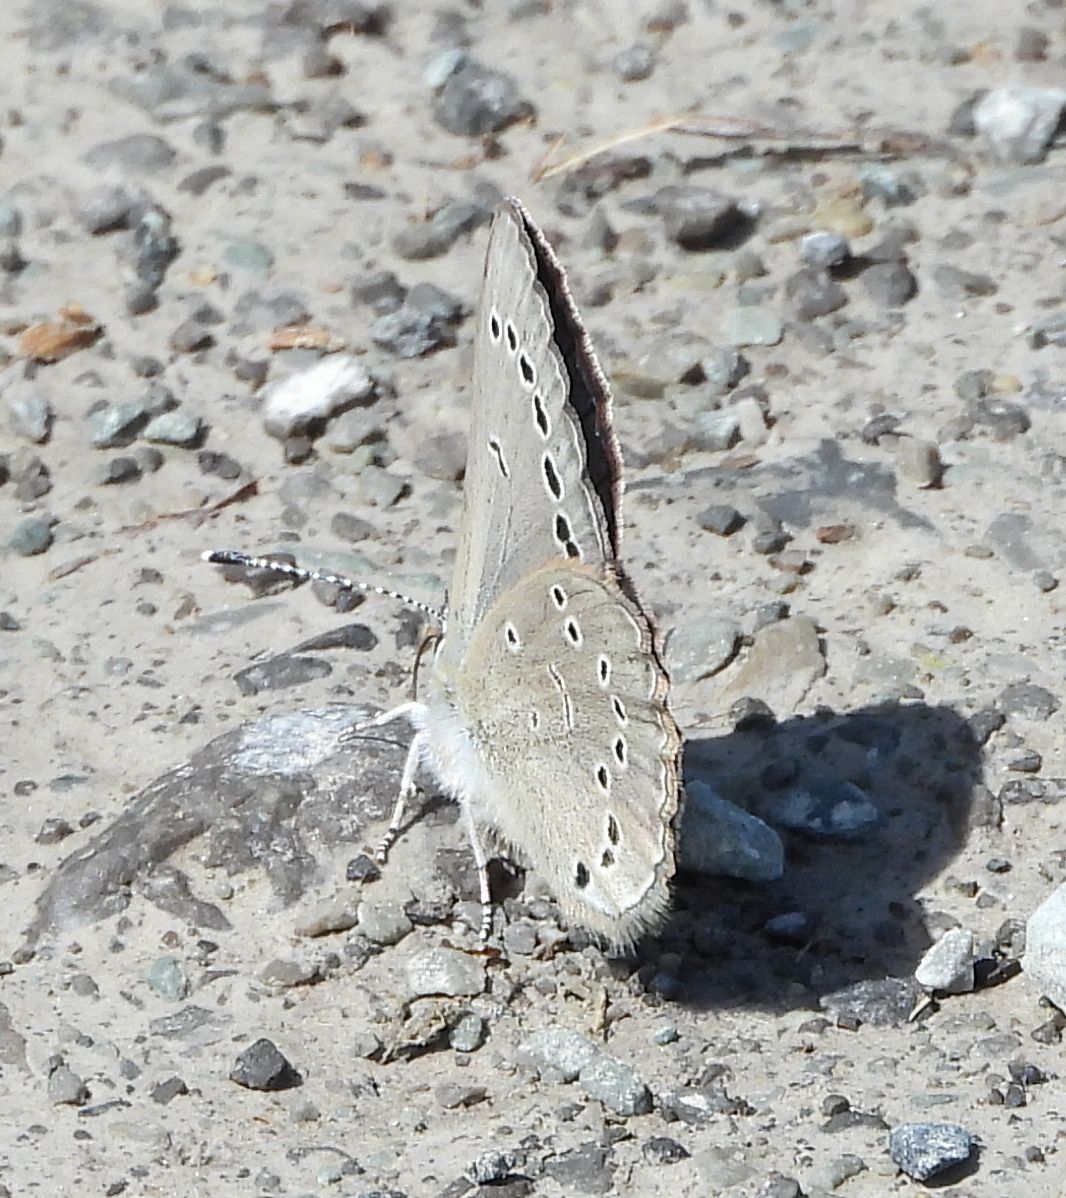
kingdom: Animalia
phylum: Arthropoda
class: Insecta
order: Lepidoptera
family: Lycaenidae
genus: Glaucopsyche
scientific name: Glaucopsyche lygdamus
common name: Silvery blue
